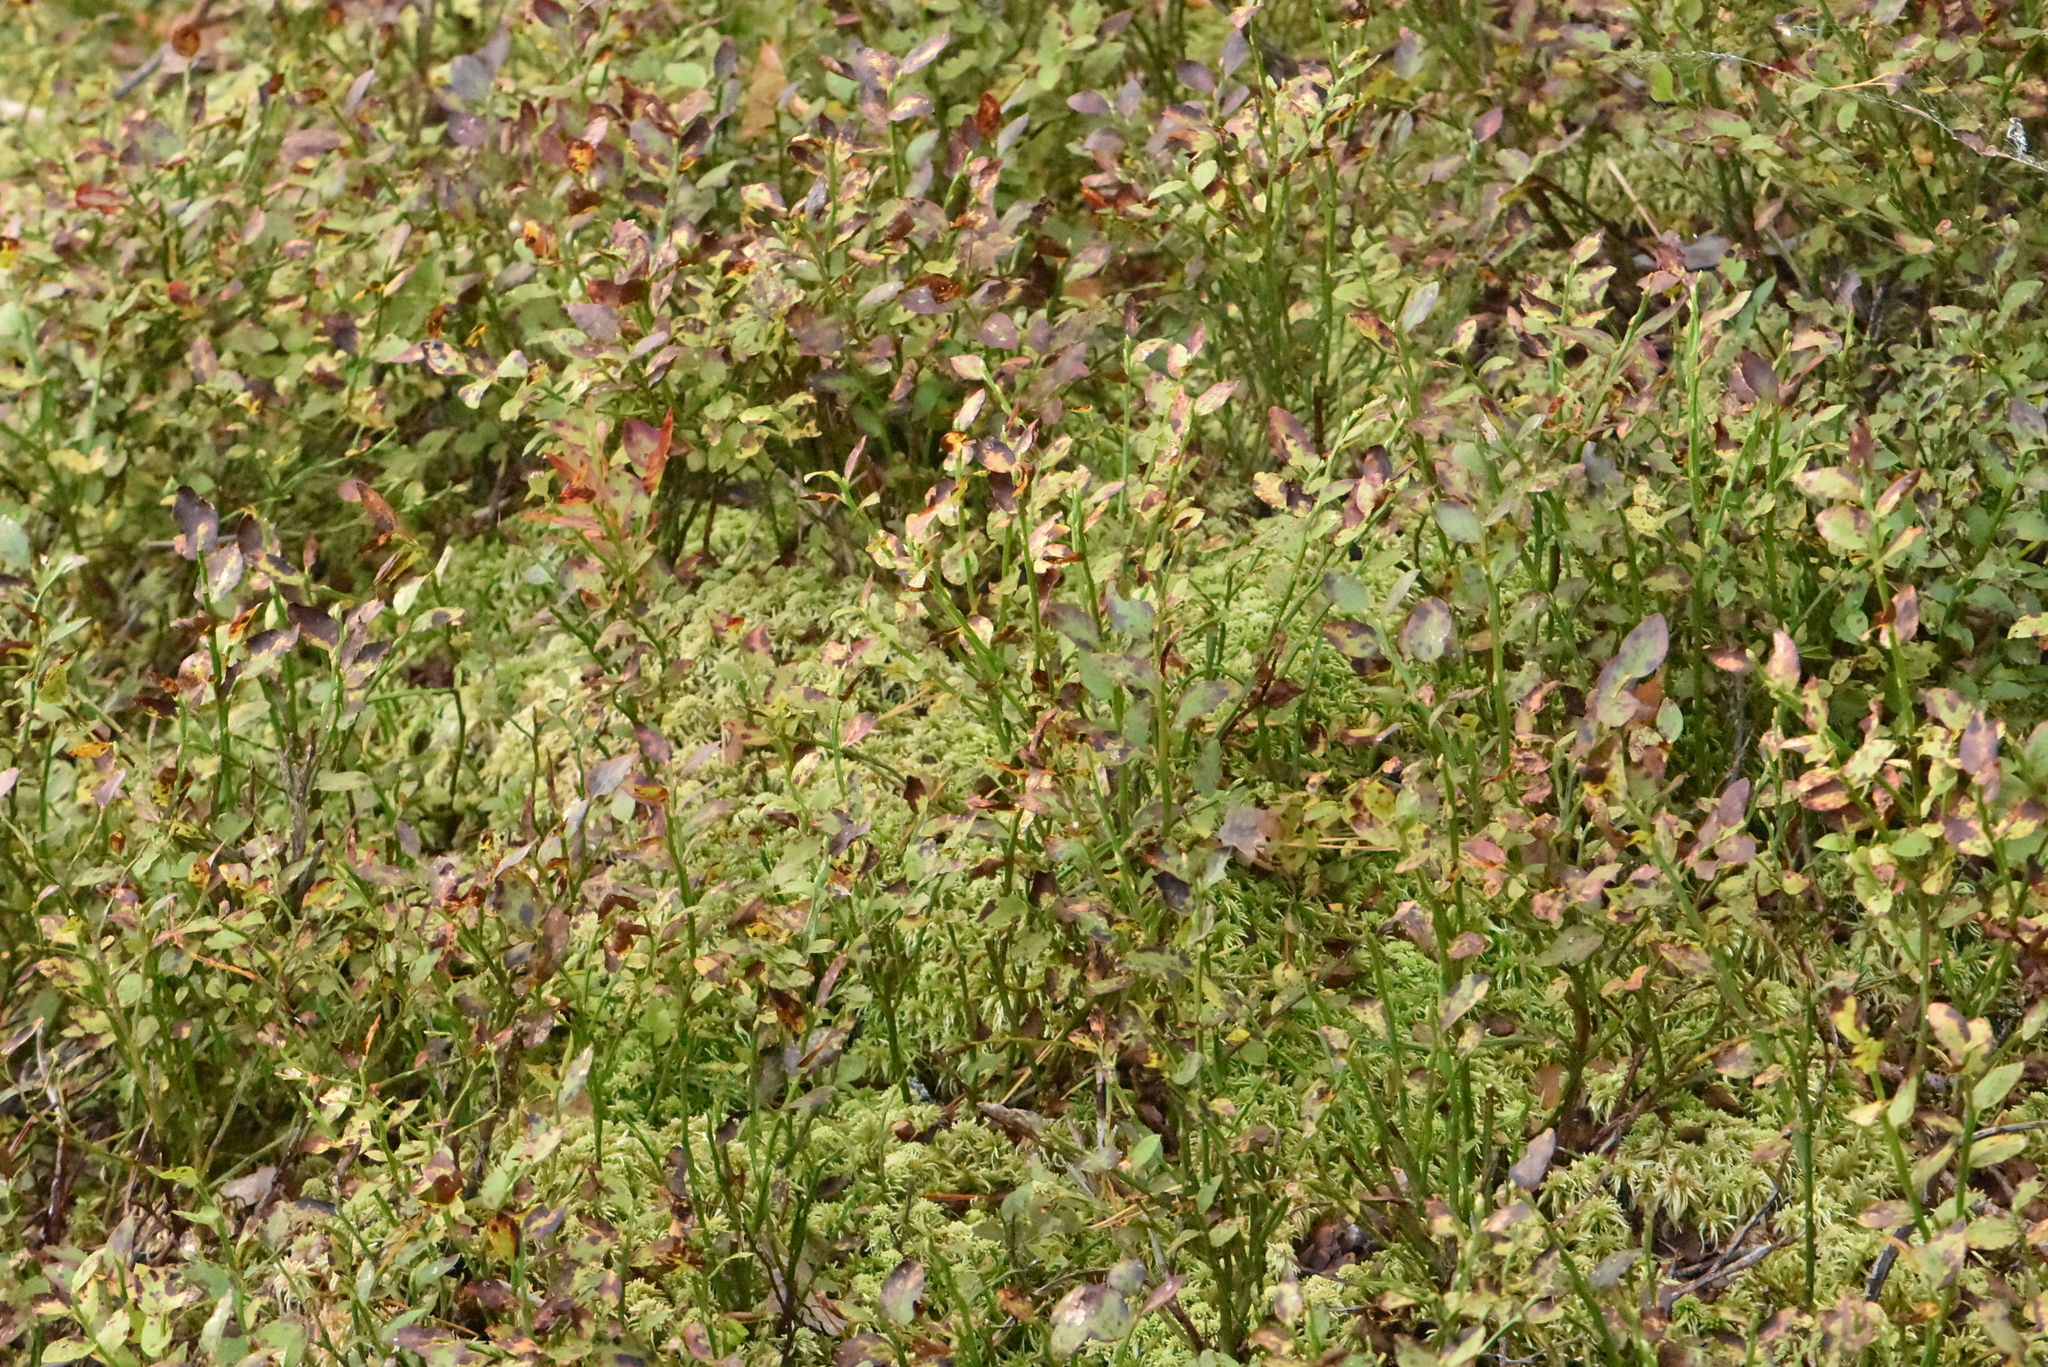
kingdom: Plantae
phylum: Tracheophyta
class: Magnoliopsida
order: Ericales
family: Ericaceae
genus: Vaccinium
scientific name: Vaccinium myrtillus
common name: Bilberry
